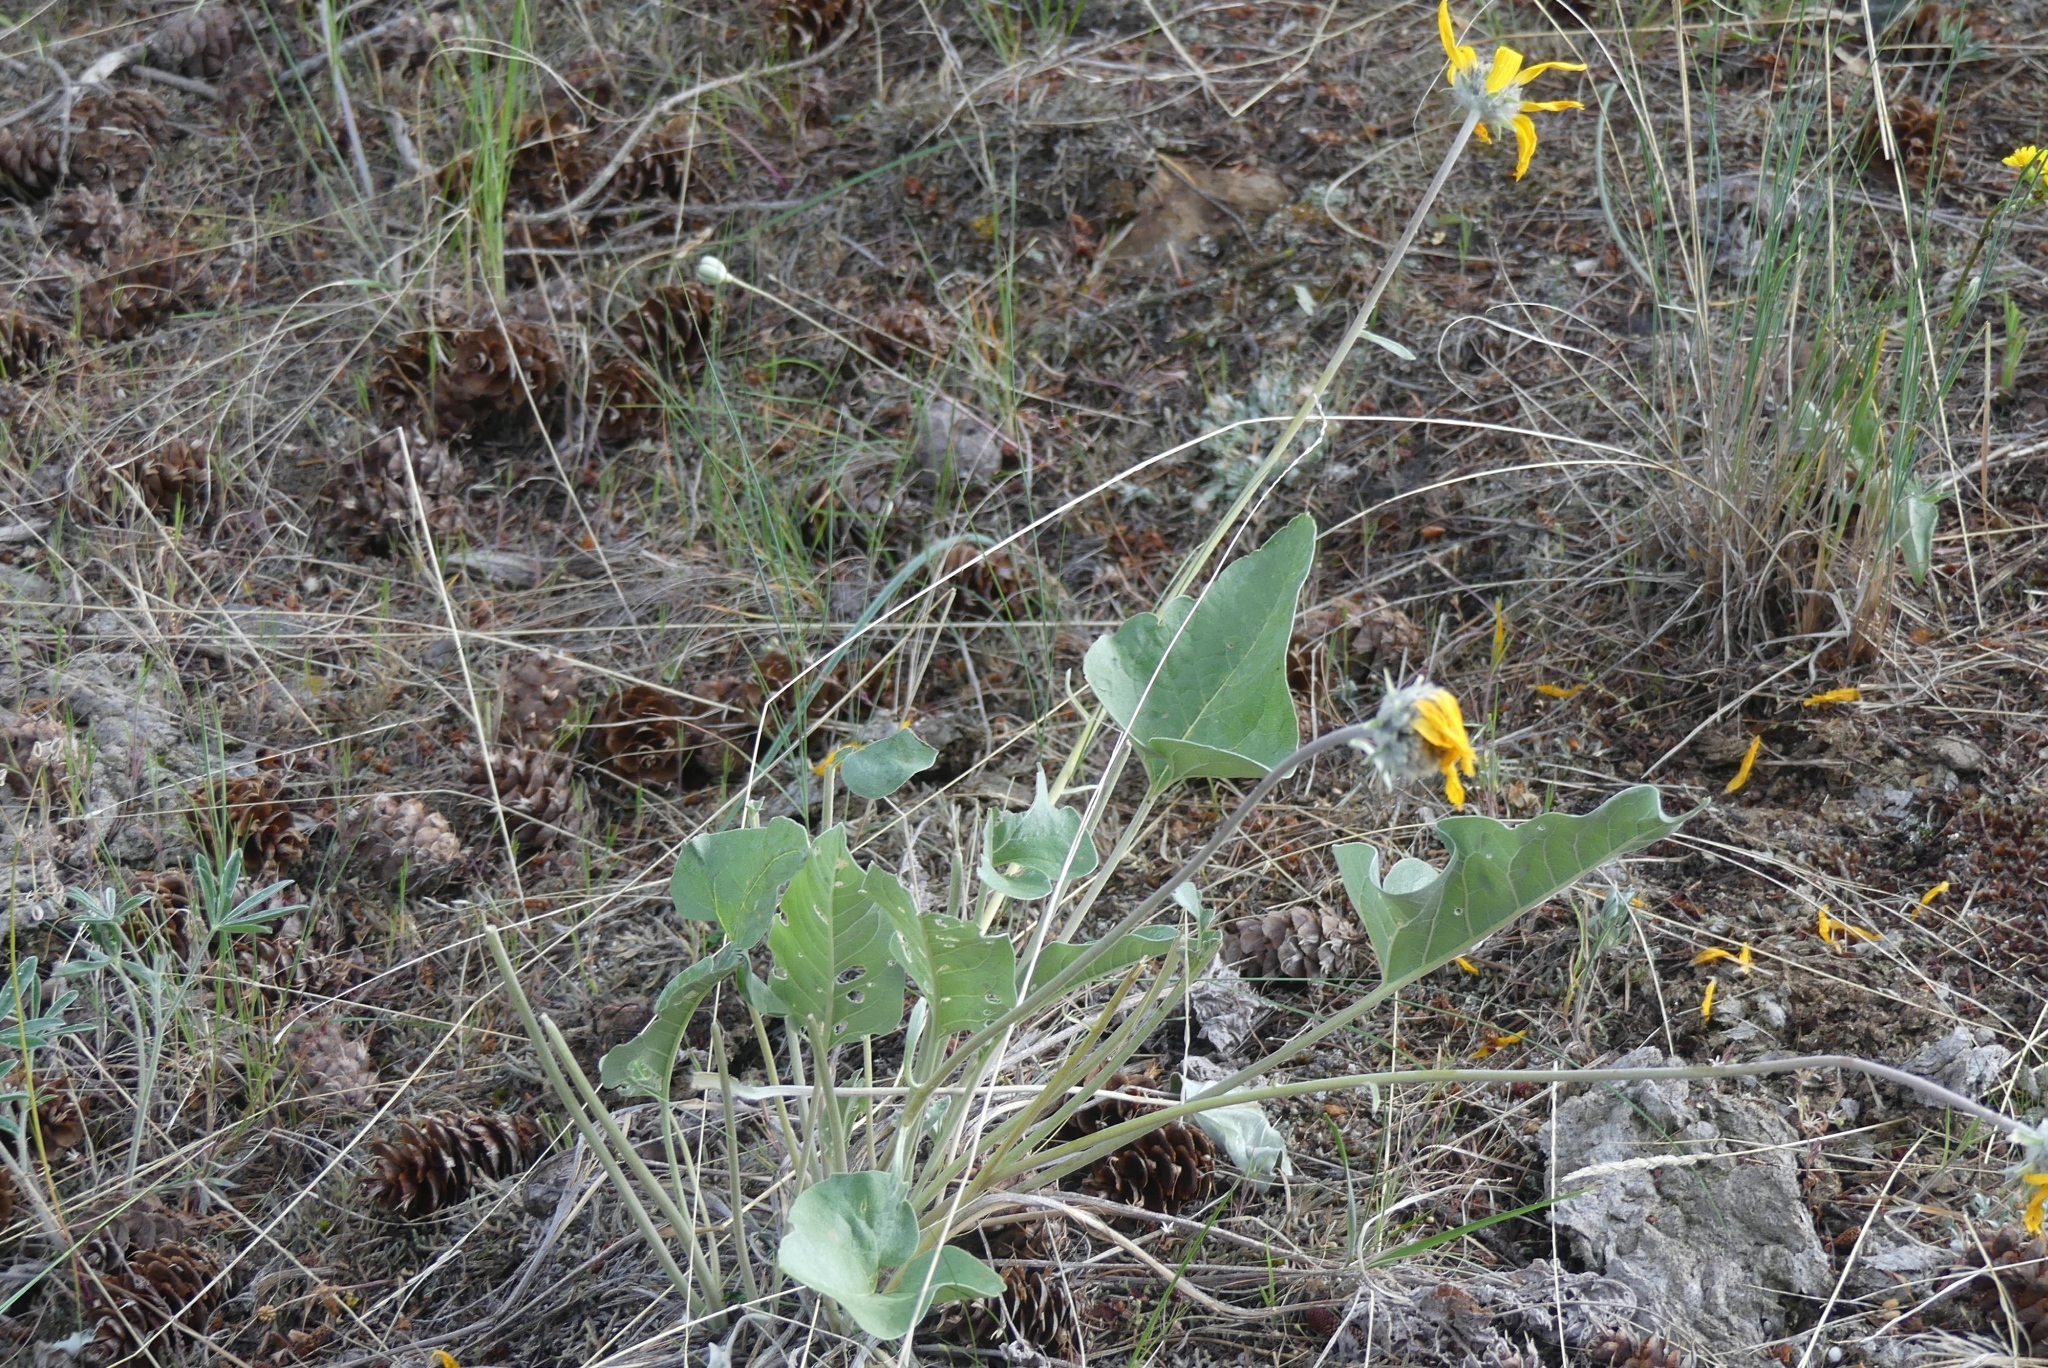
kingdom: Plantae
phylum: Tracheophyta
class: Magnoliopsida
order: Asterales
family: Asteraceae
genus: Wyethia
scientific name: Wyethia sagittata
